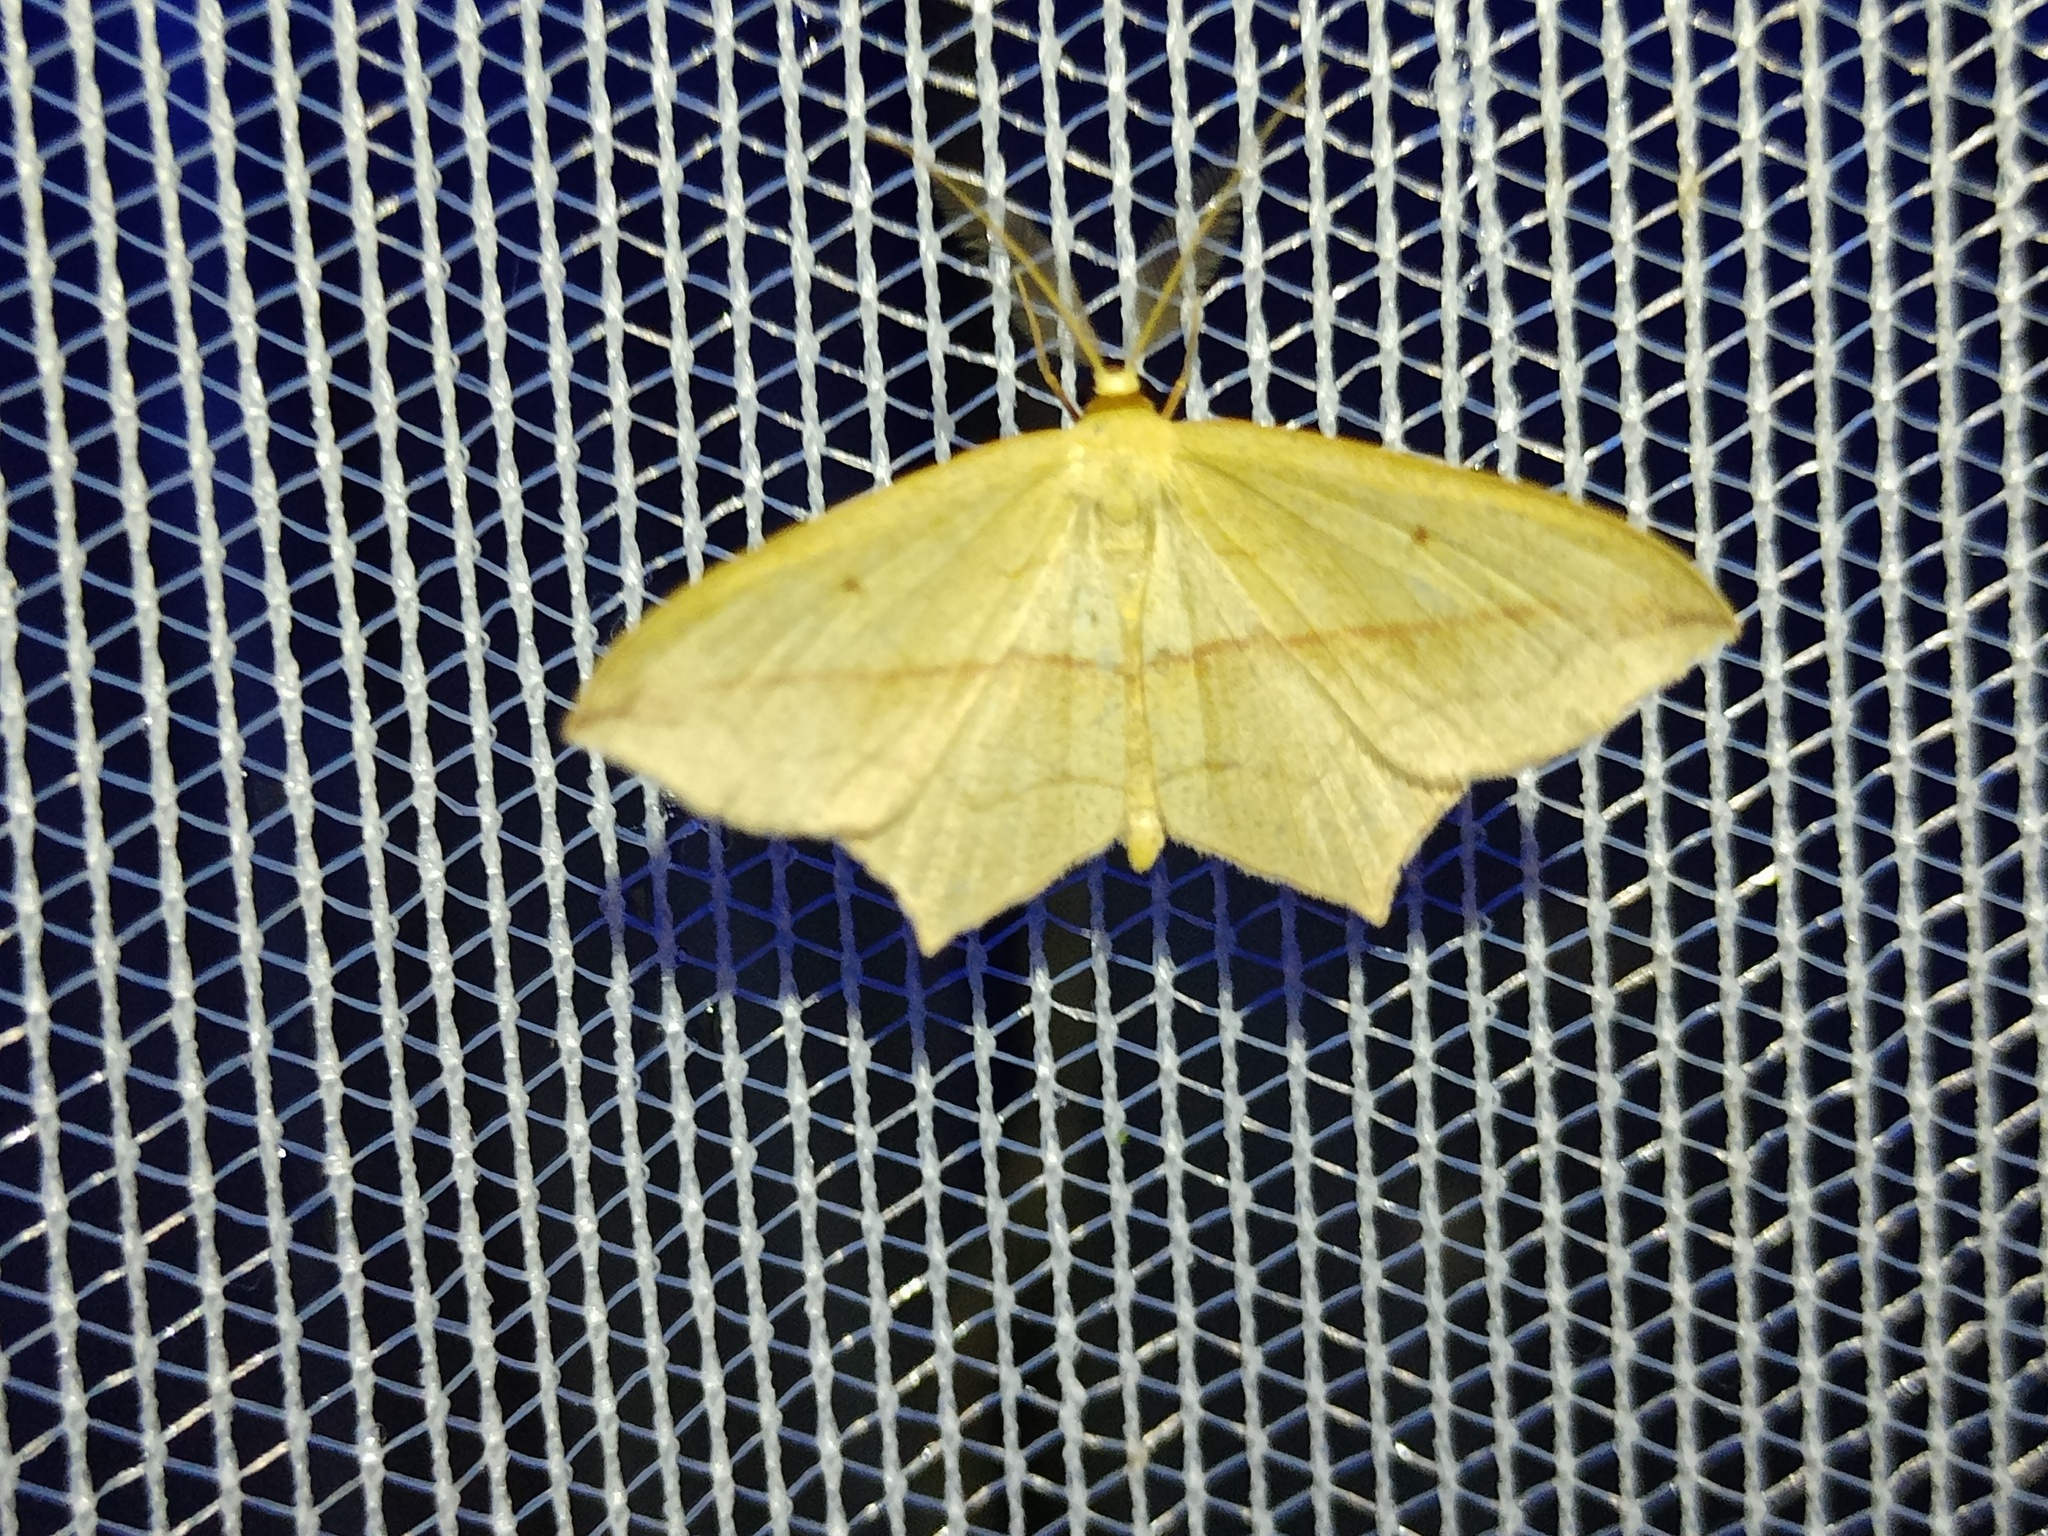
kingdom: Animalia
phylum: Arthropoda
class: Insecta
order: Lepidoptera
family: Geometridae
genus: Timandra
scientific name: Timandra comae
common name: Blood-vein
